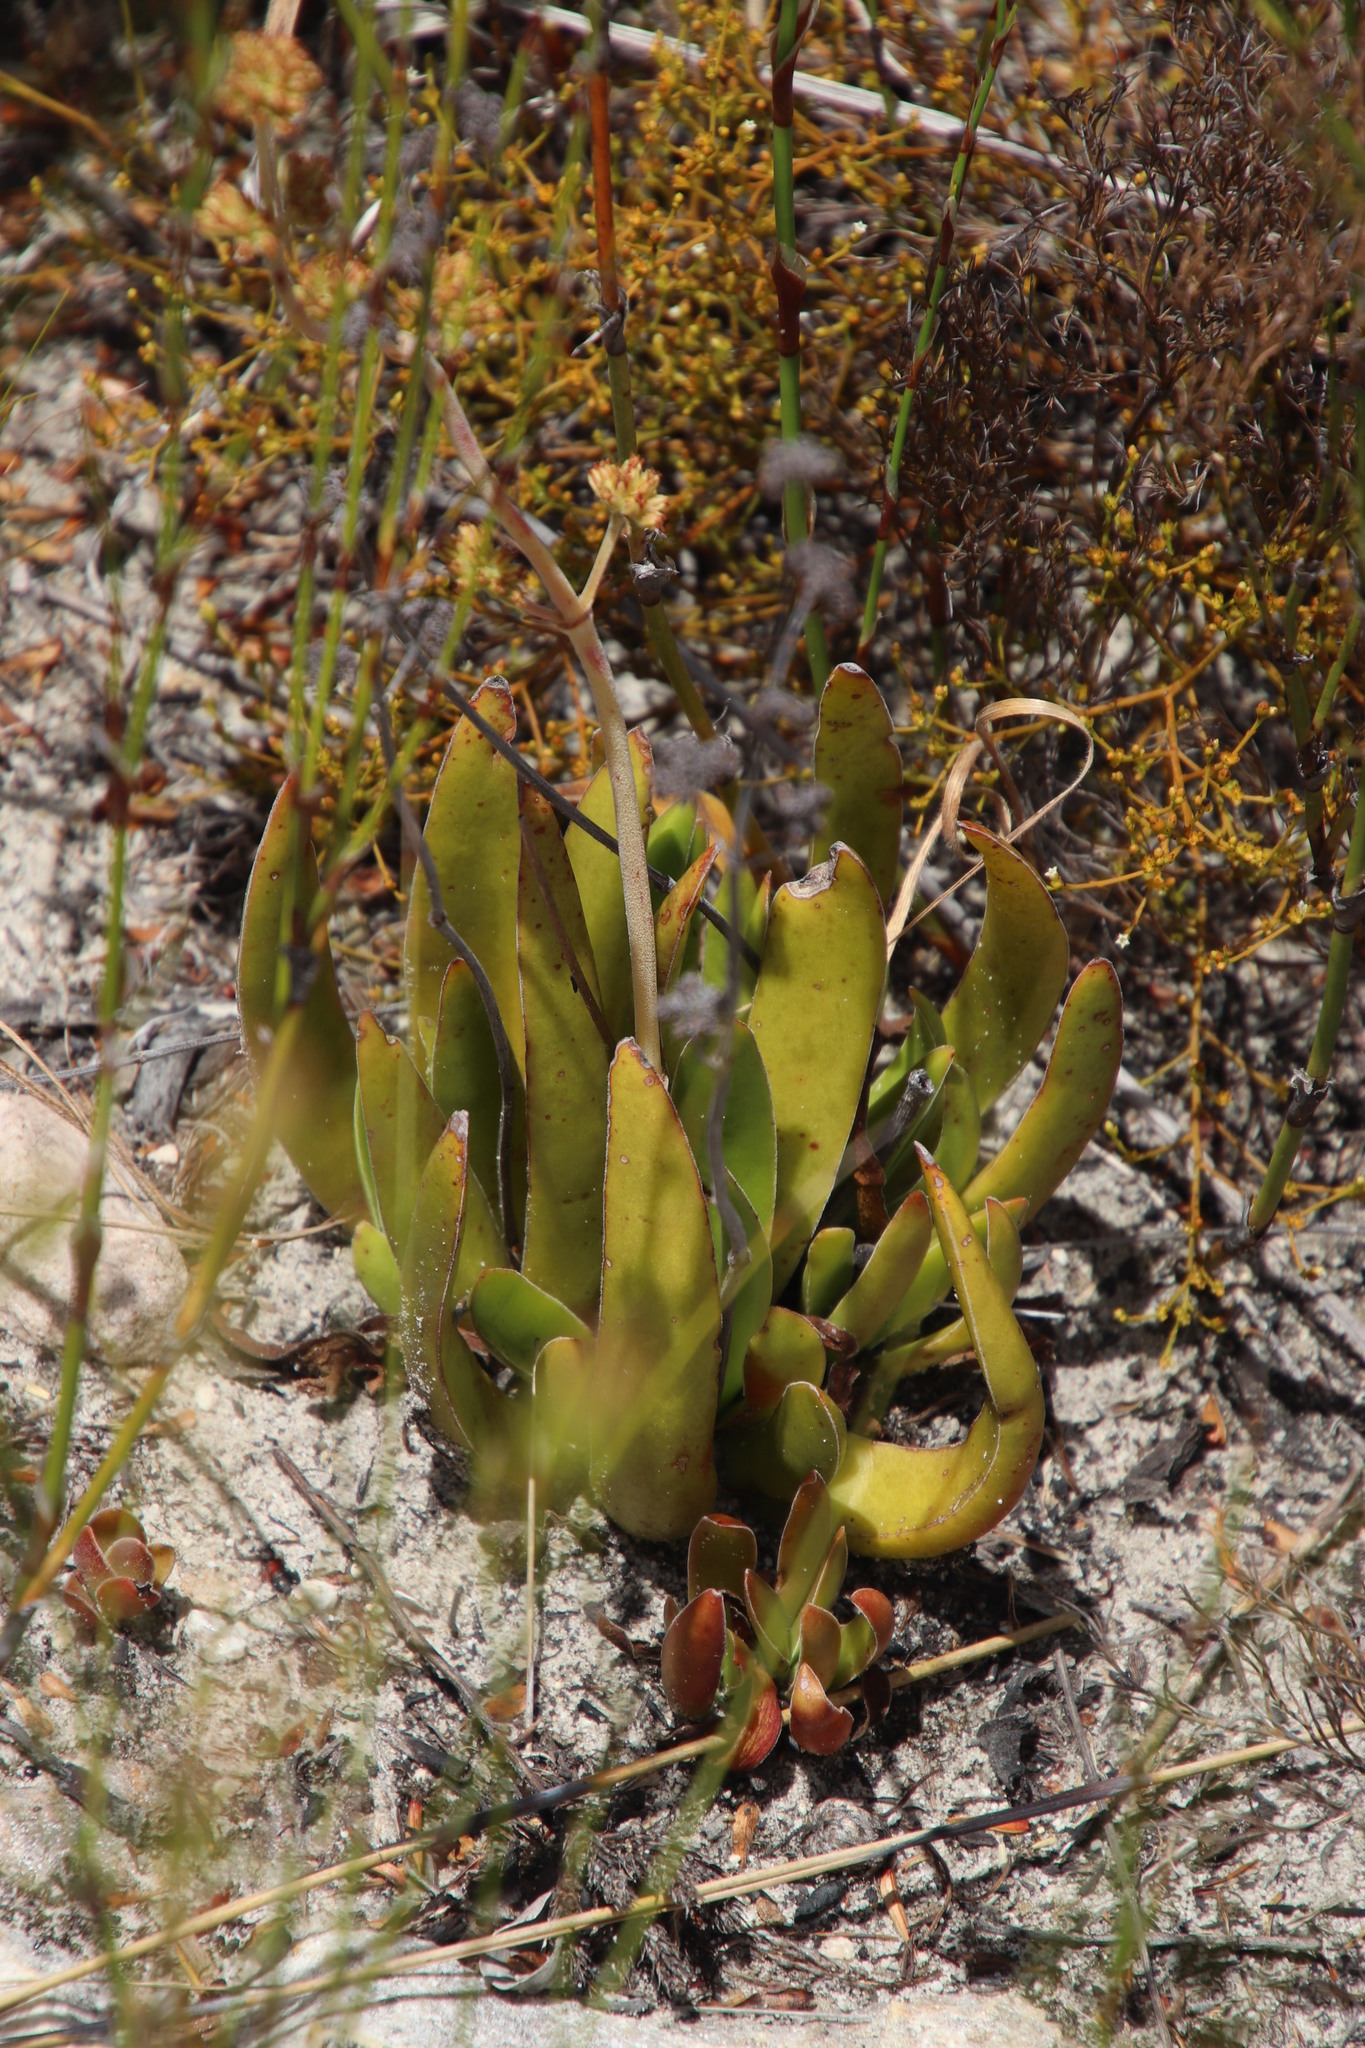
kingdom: Plantae
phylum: Tracheophyta
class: Magnoliopsida
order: Saxifragales
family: Crassulaceae
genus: Crassula
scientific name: Crassula nudicaulis
